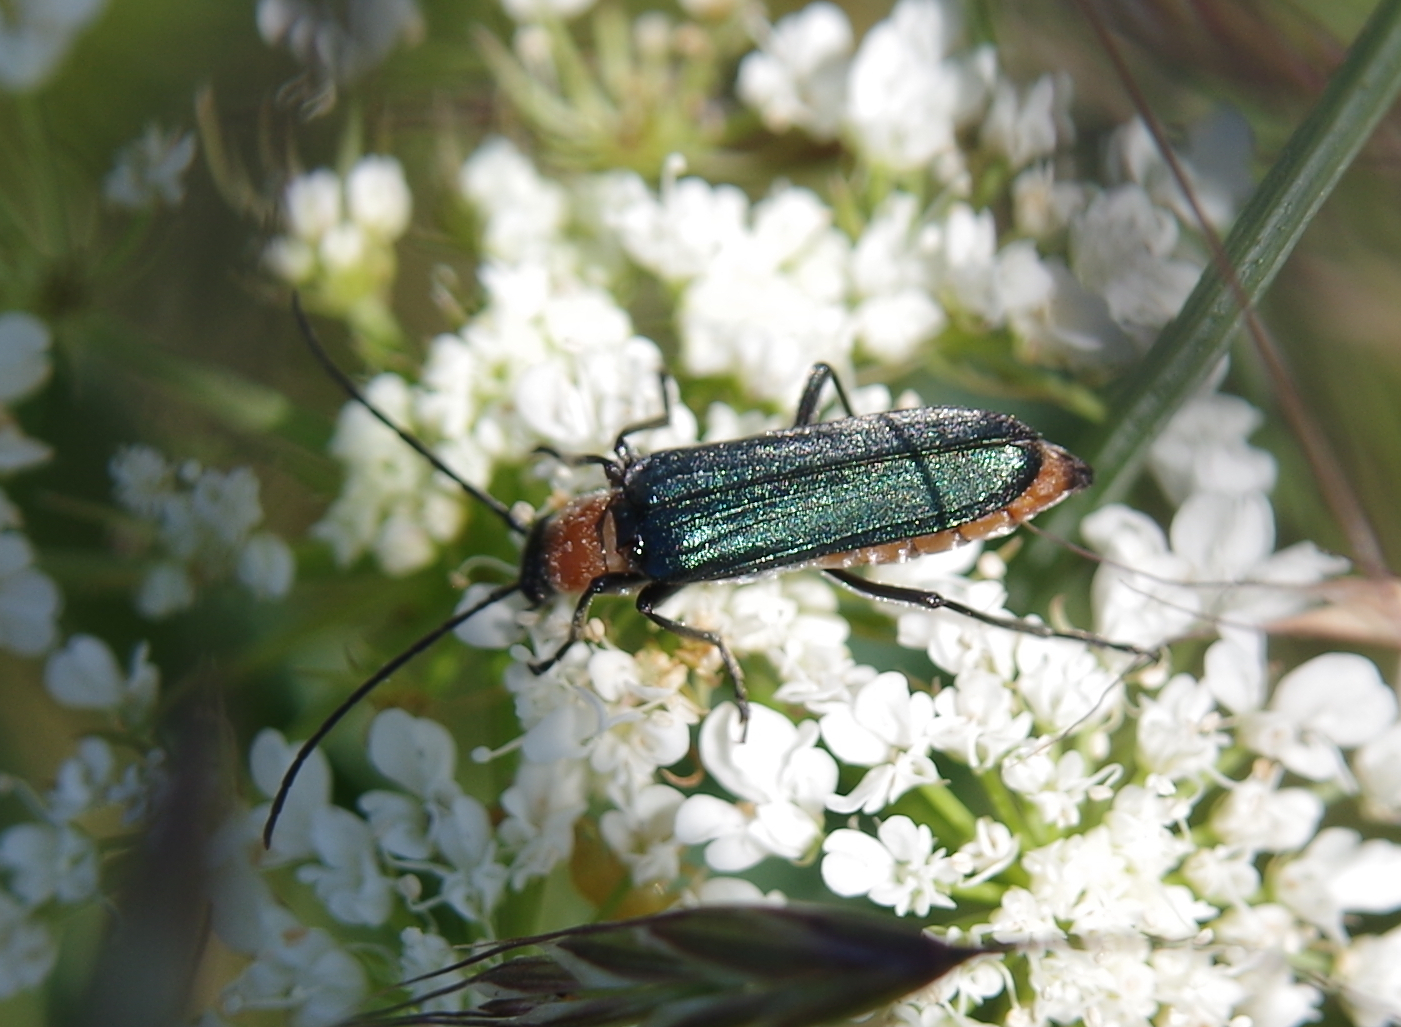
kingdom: Animalia
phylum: Arthropoda
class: Insecta
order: Coleoptera
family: Oedemeridae
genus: Anogcodes
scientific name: Anogcodes ruficollis
